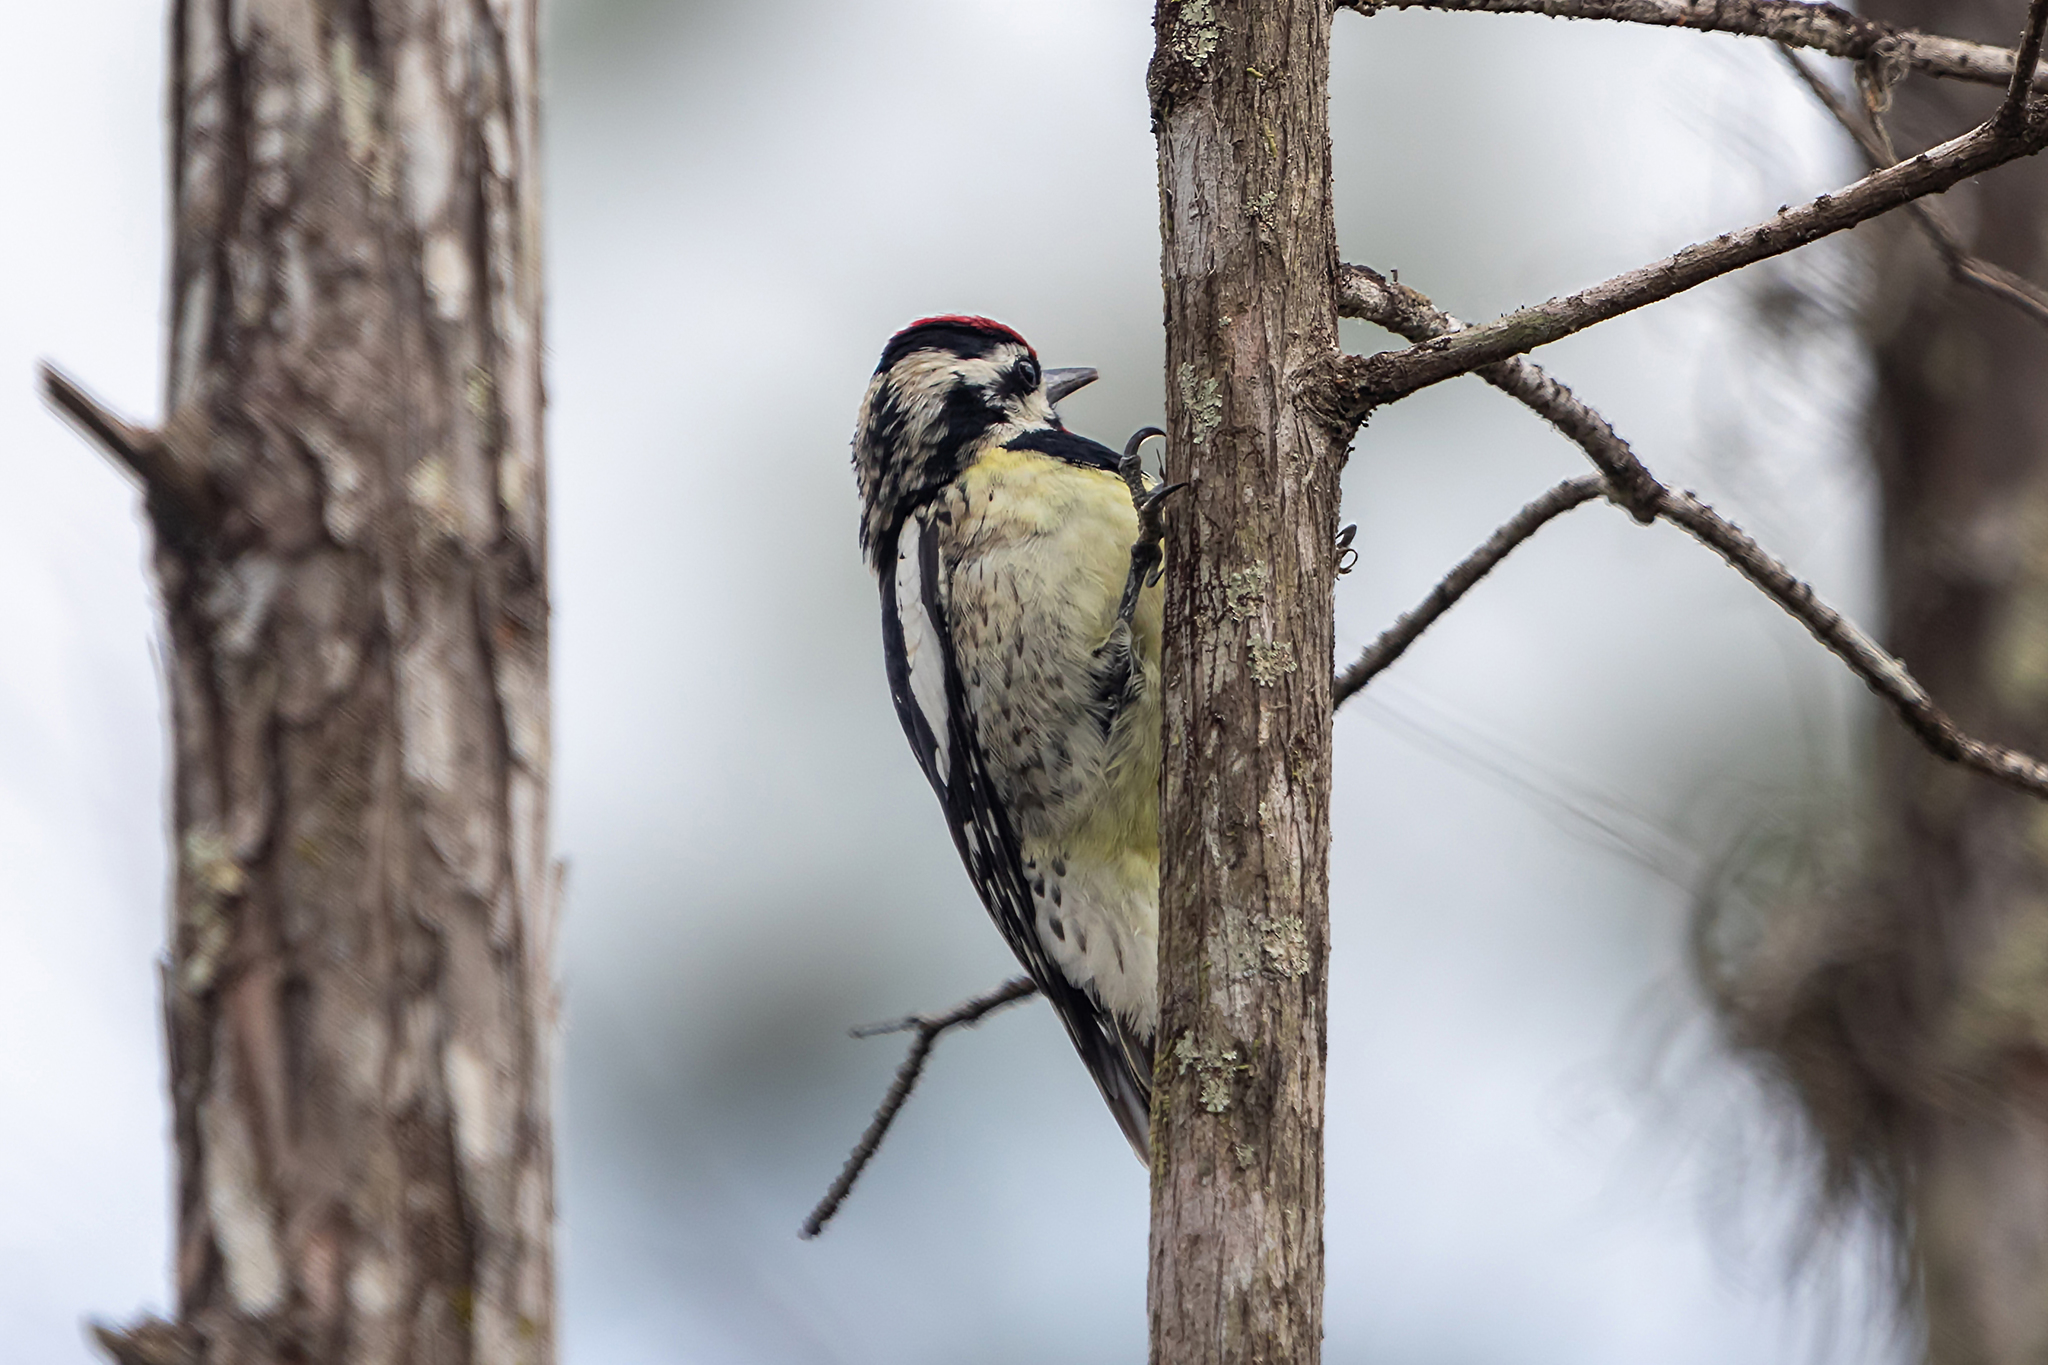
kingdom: Animalia
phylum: Chordata
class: Aves
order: Piciformes
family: Picidae
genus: Sphyrapicus
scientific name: Sphyrapicus varius
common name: Yellow-bellied sapsucker
